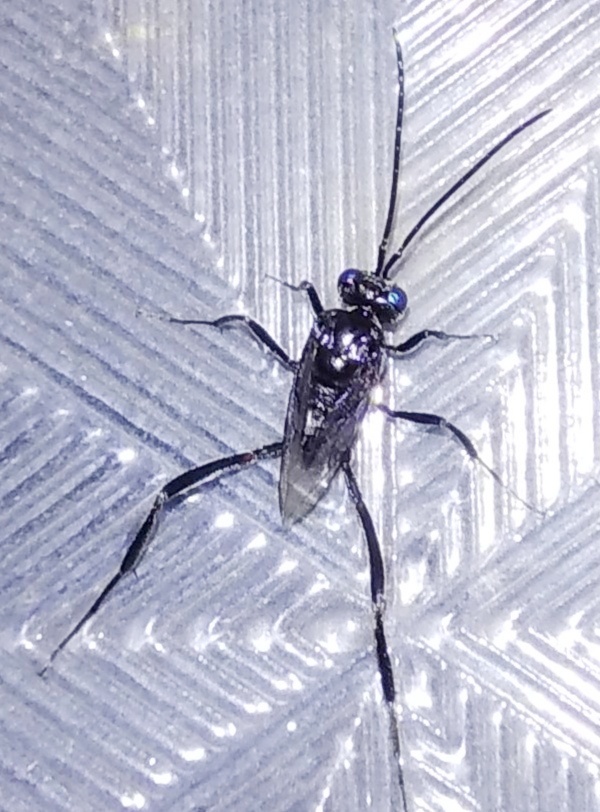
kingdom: Animalia
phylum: Arthropoda
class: Insecta
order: Hymenoptera
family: Evaniidae
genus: Evania
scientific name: Evania appendigaster
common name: Ensign wasp
